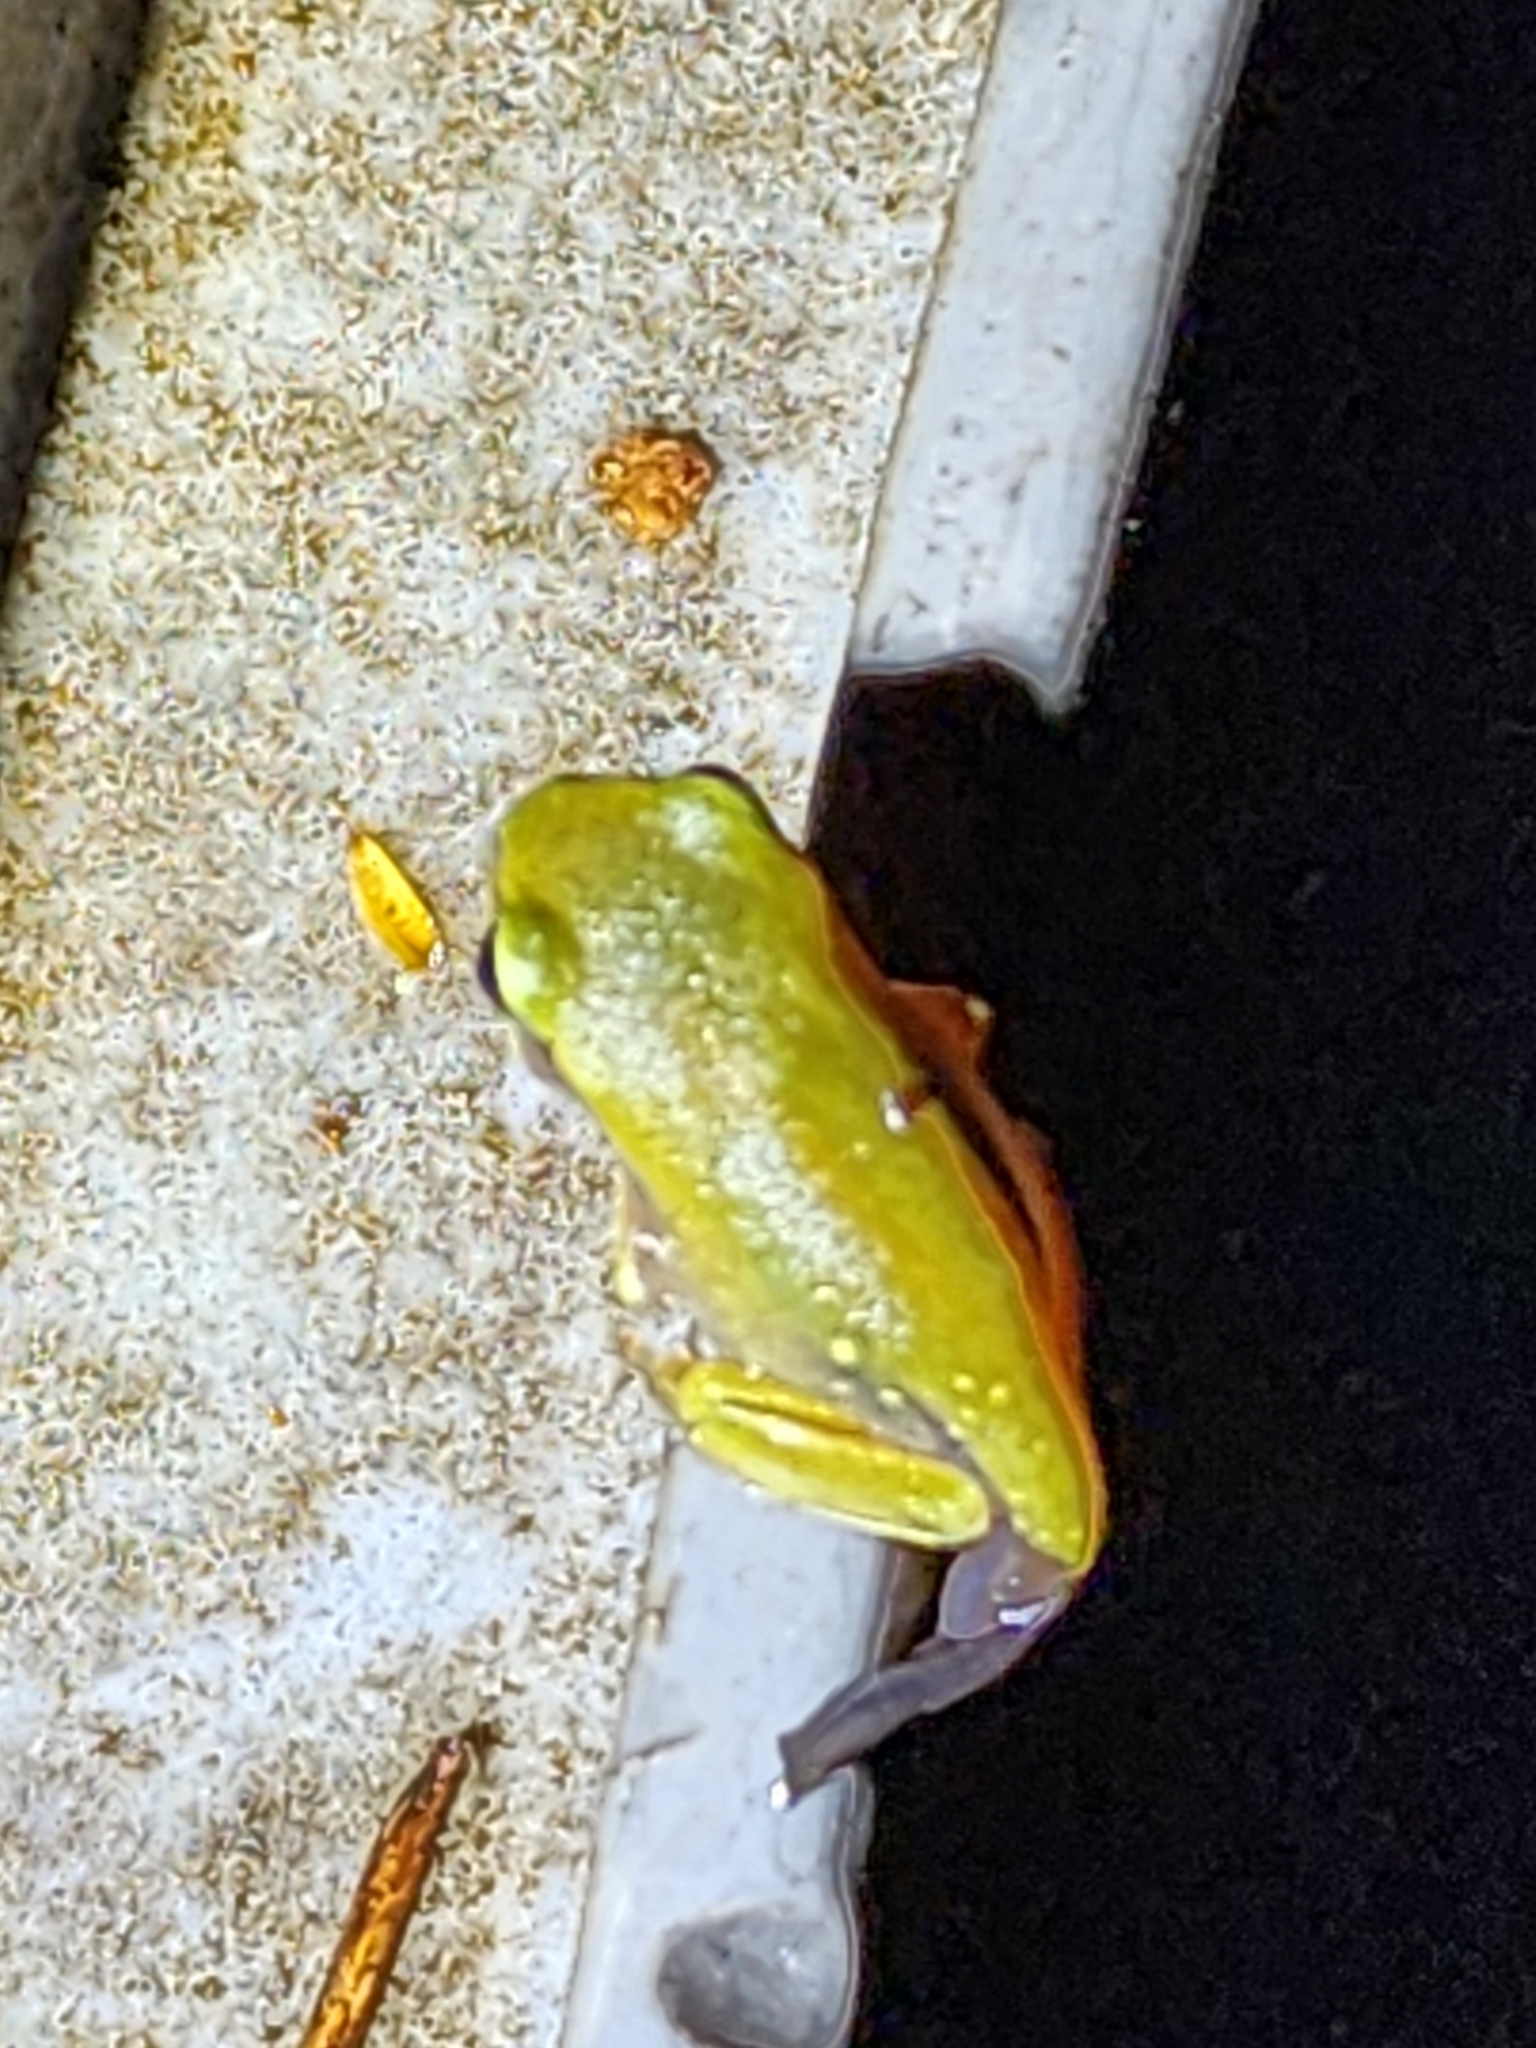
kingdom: Animalia
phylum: Chordata
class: Amphibia
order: Anura
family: Pelodryadidae
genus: Ranoidea
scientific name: Ranoidea caerulea
